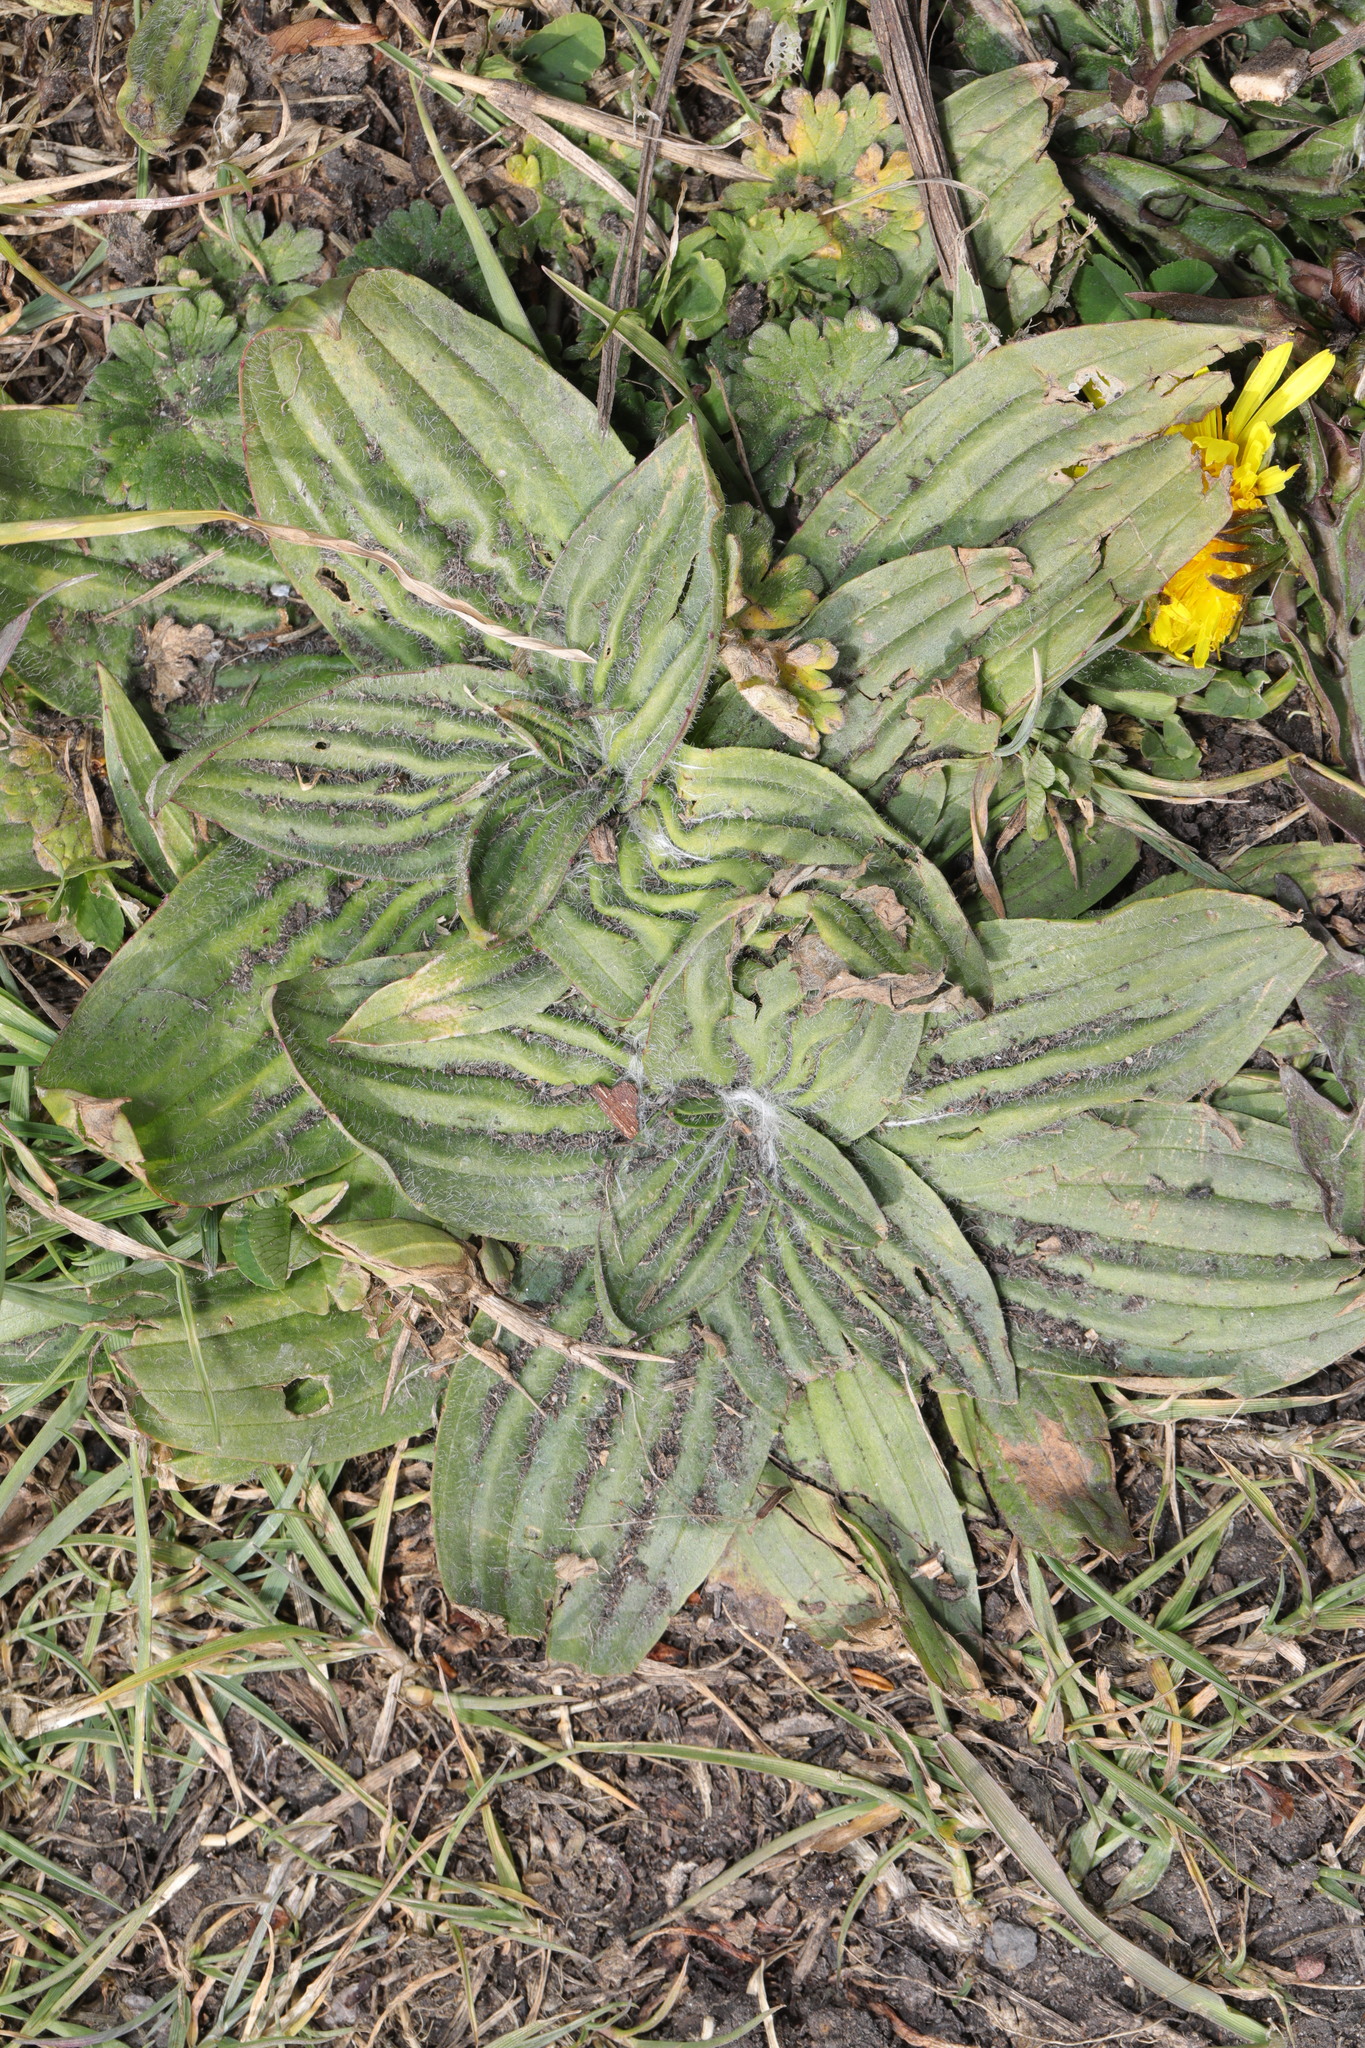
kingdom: Plantae
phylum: Tracheophyta
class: Magnoliopsida
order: Lamiales
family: Plantaginaceae
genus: Plantago
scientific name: Plantago media
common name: Hoary plantain
